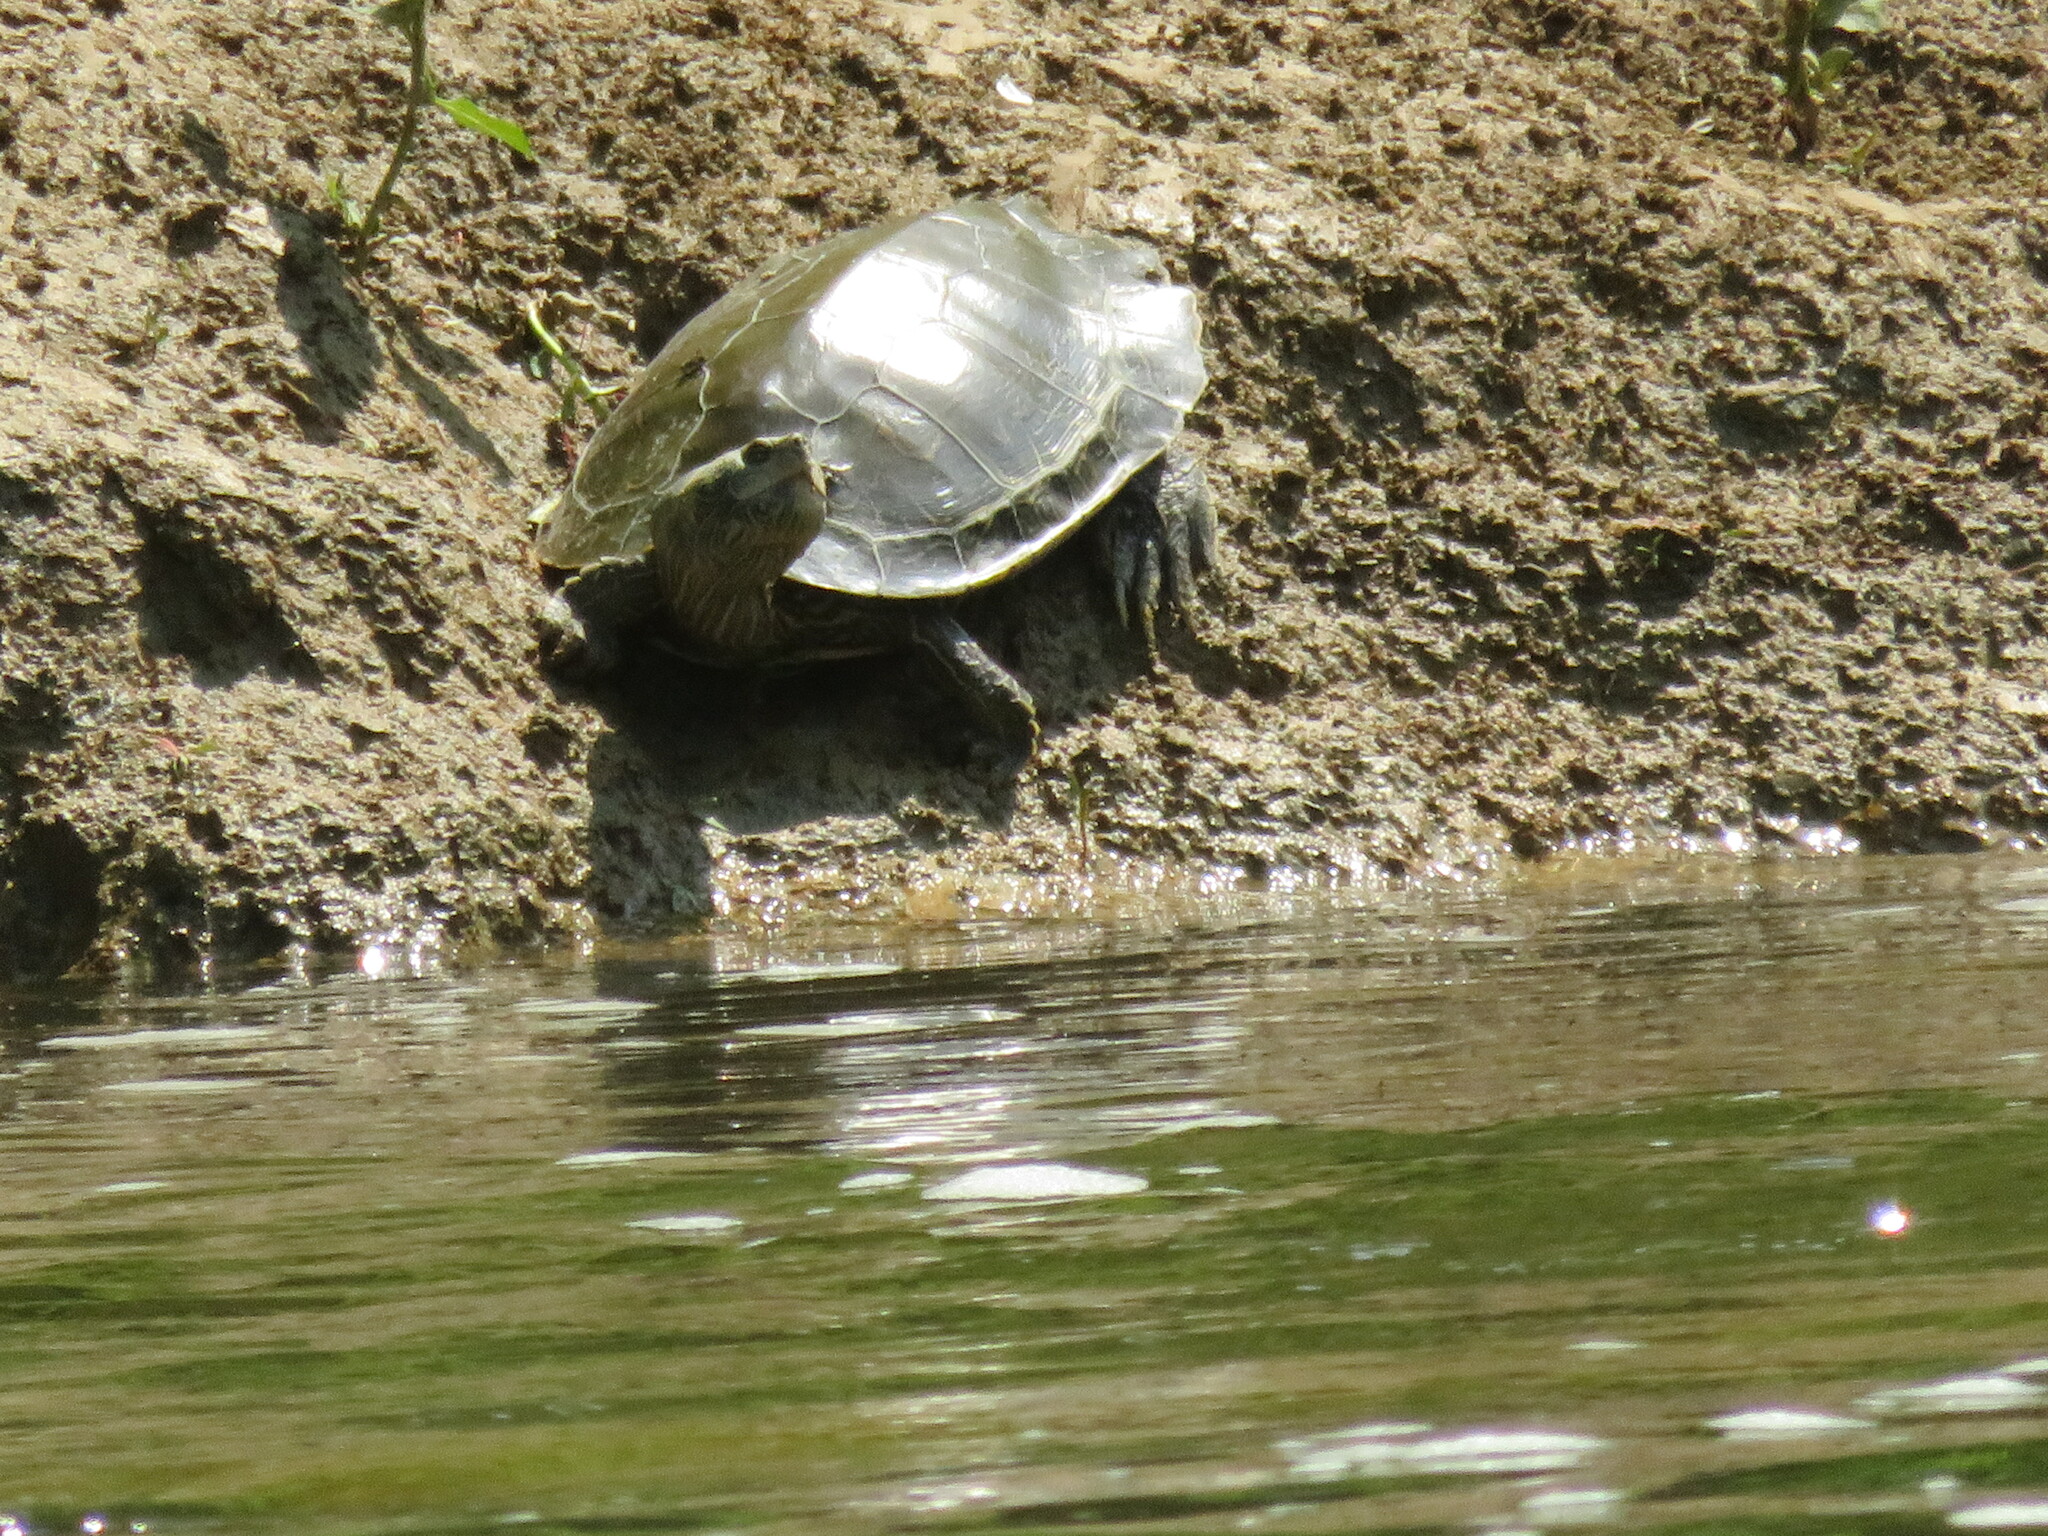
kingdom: Animalia
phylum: Chordata
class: Testudines
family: Emydidae
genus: Graptemys
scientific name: Graptemys geographica
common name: Common map turtle
